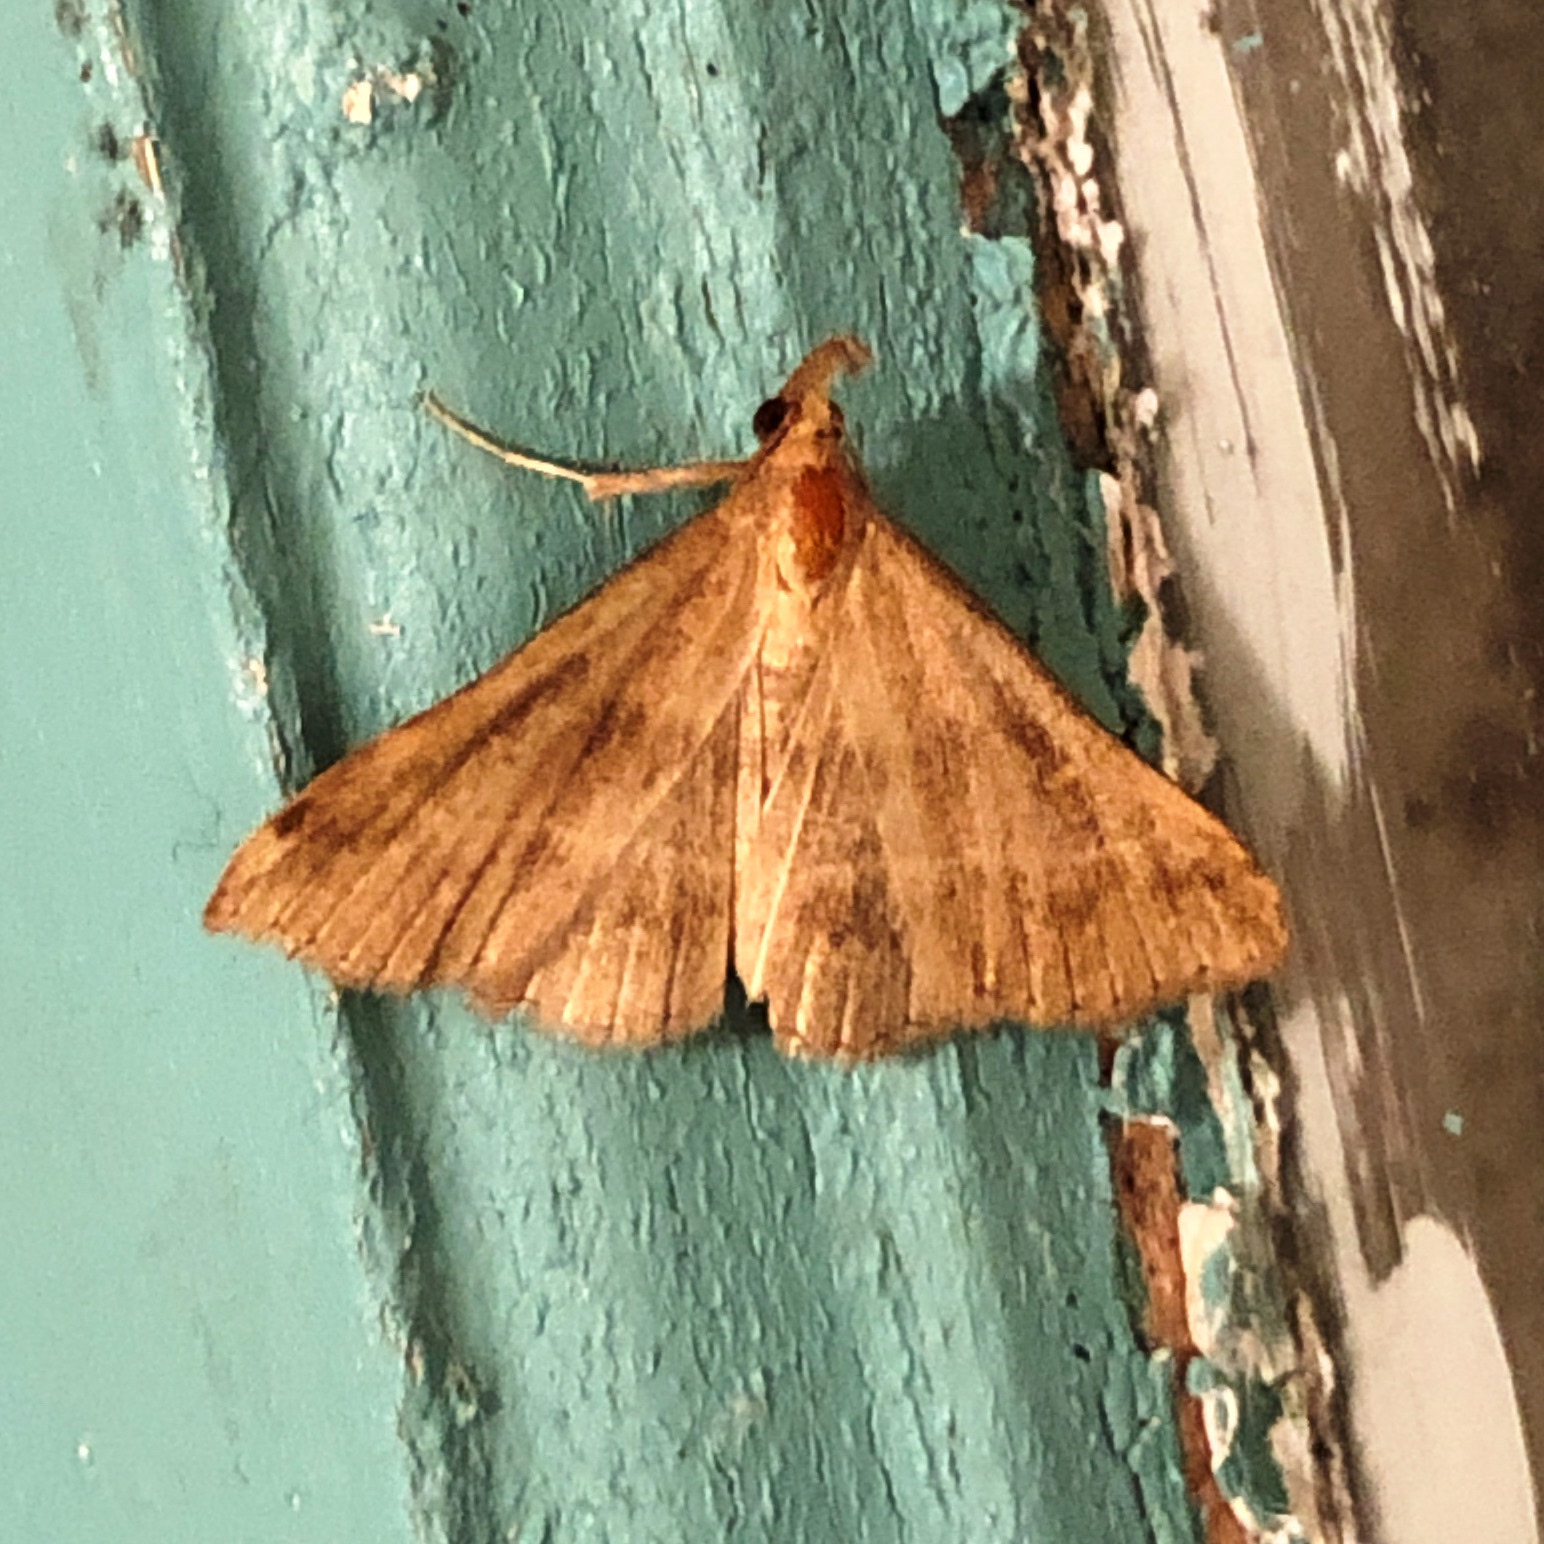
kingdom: Animalia
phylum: Arthropoda
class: Insecta
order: Lepidoptera
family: Erebidae
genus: Renia
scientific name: Renia flavipunctalis
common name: Yellow-spotted renia moth
